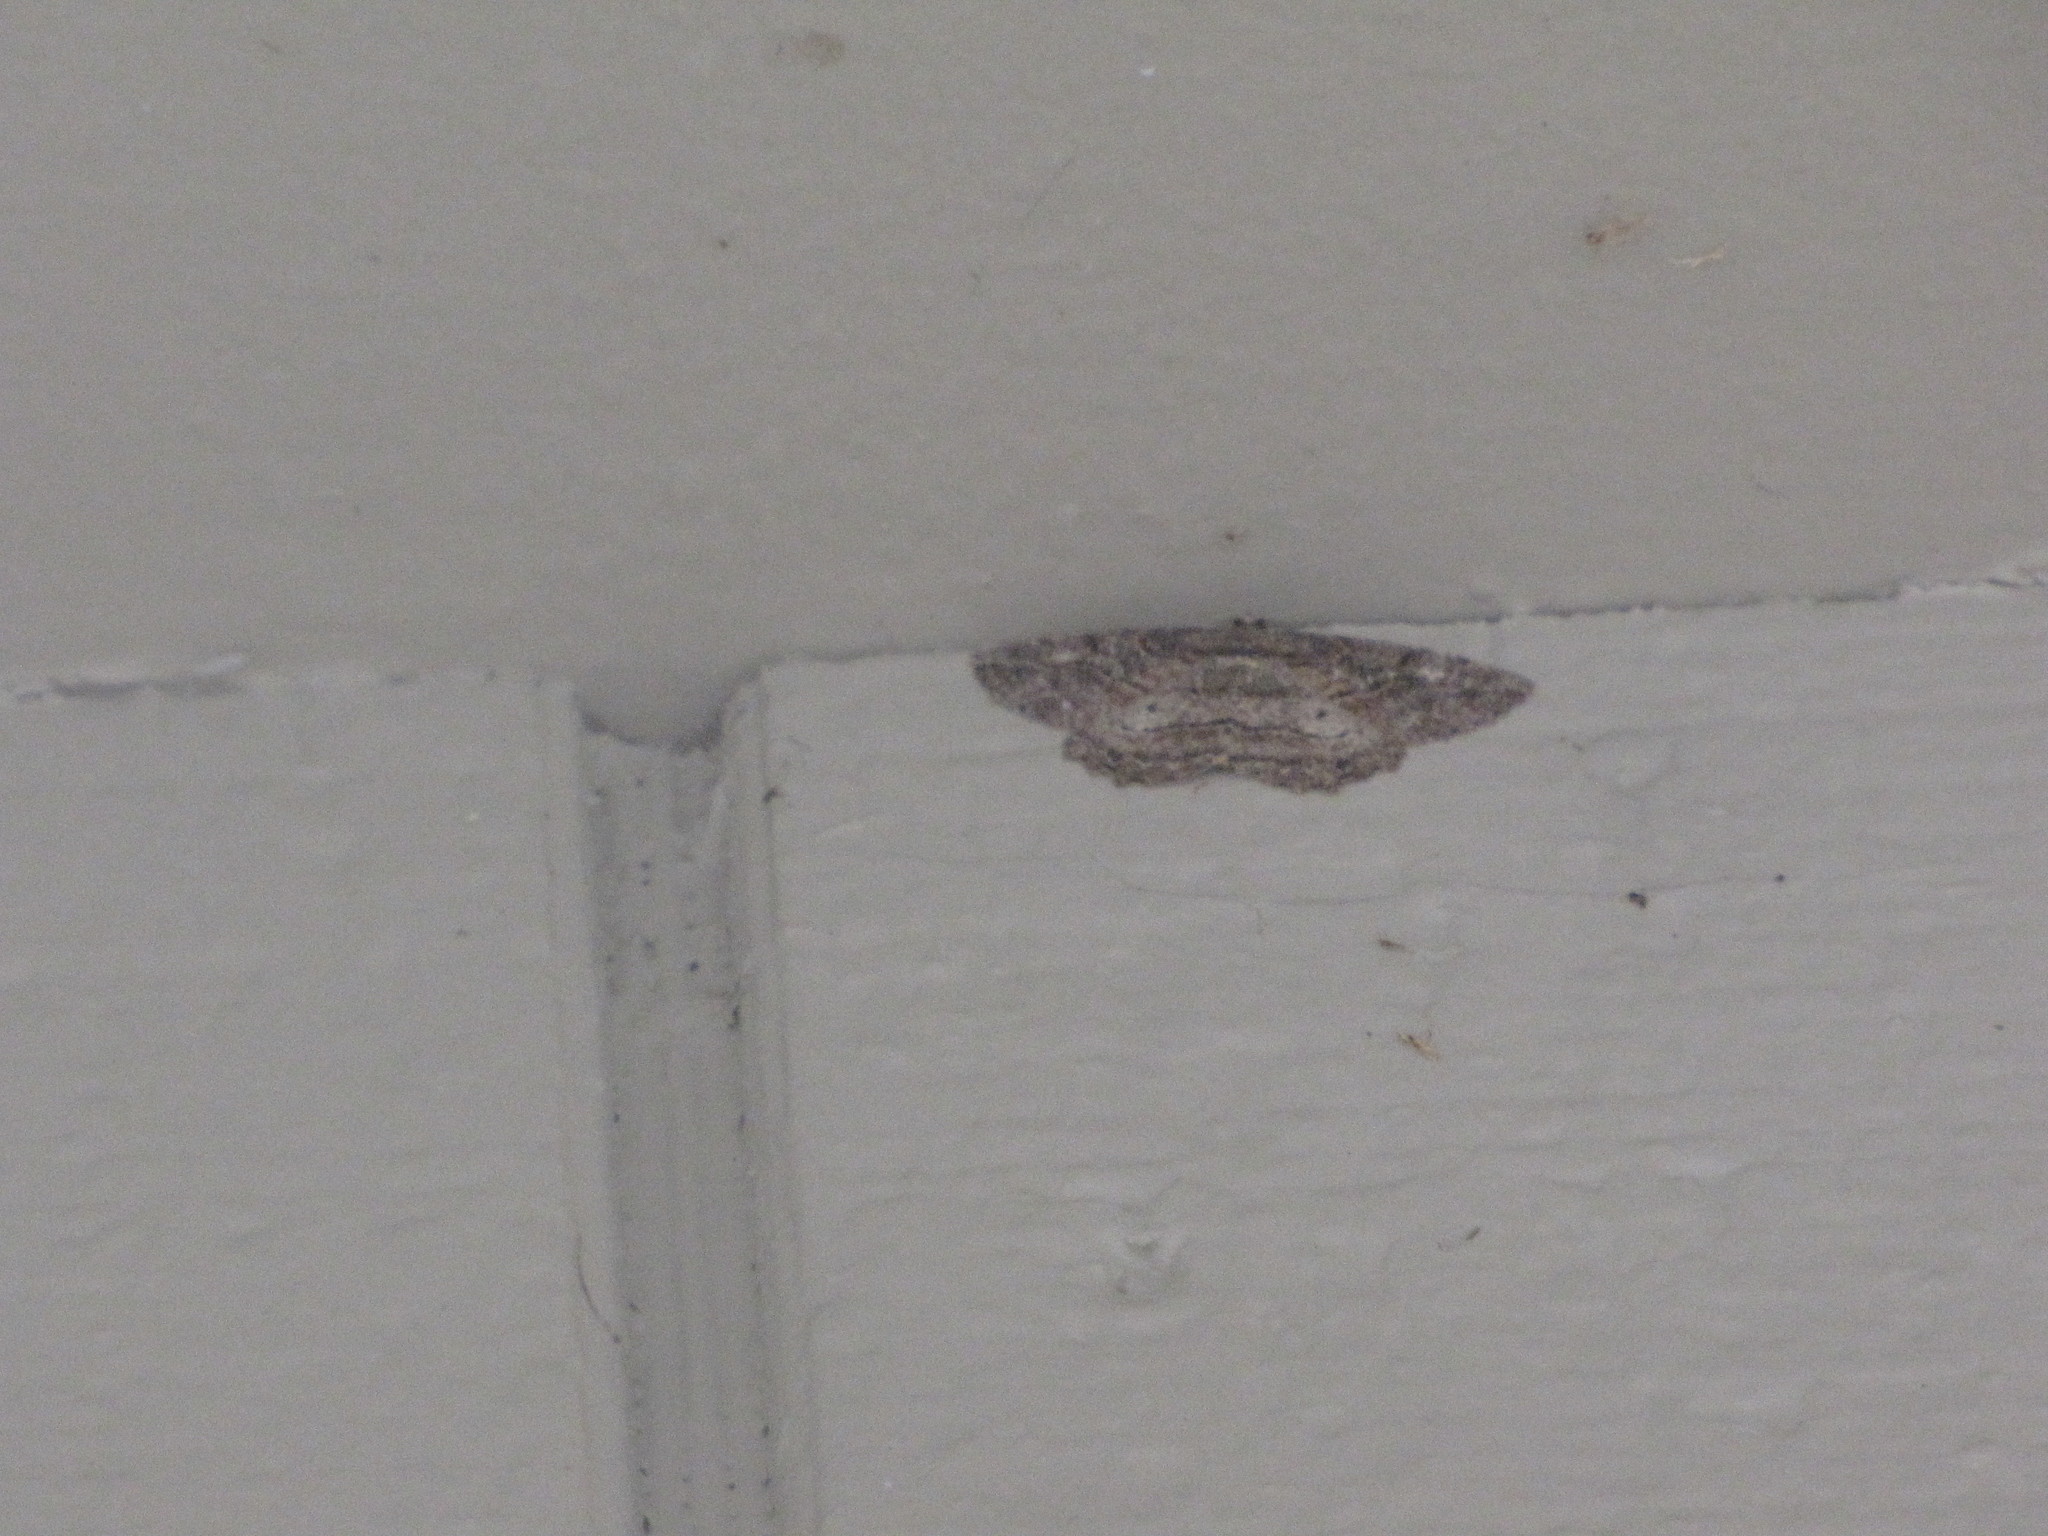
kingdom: Animalia
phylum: Arthropoda
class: Insecta
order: Lepidoptera
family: Geometridae
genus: Neoalcis
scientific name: Neoalcis californiaria
